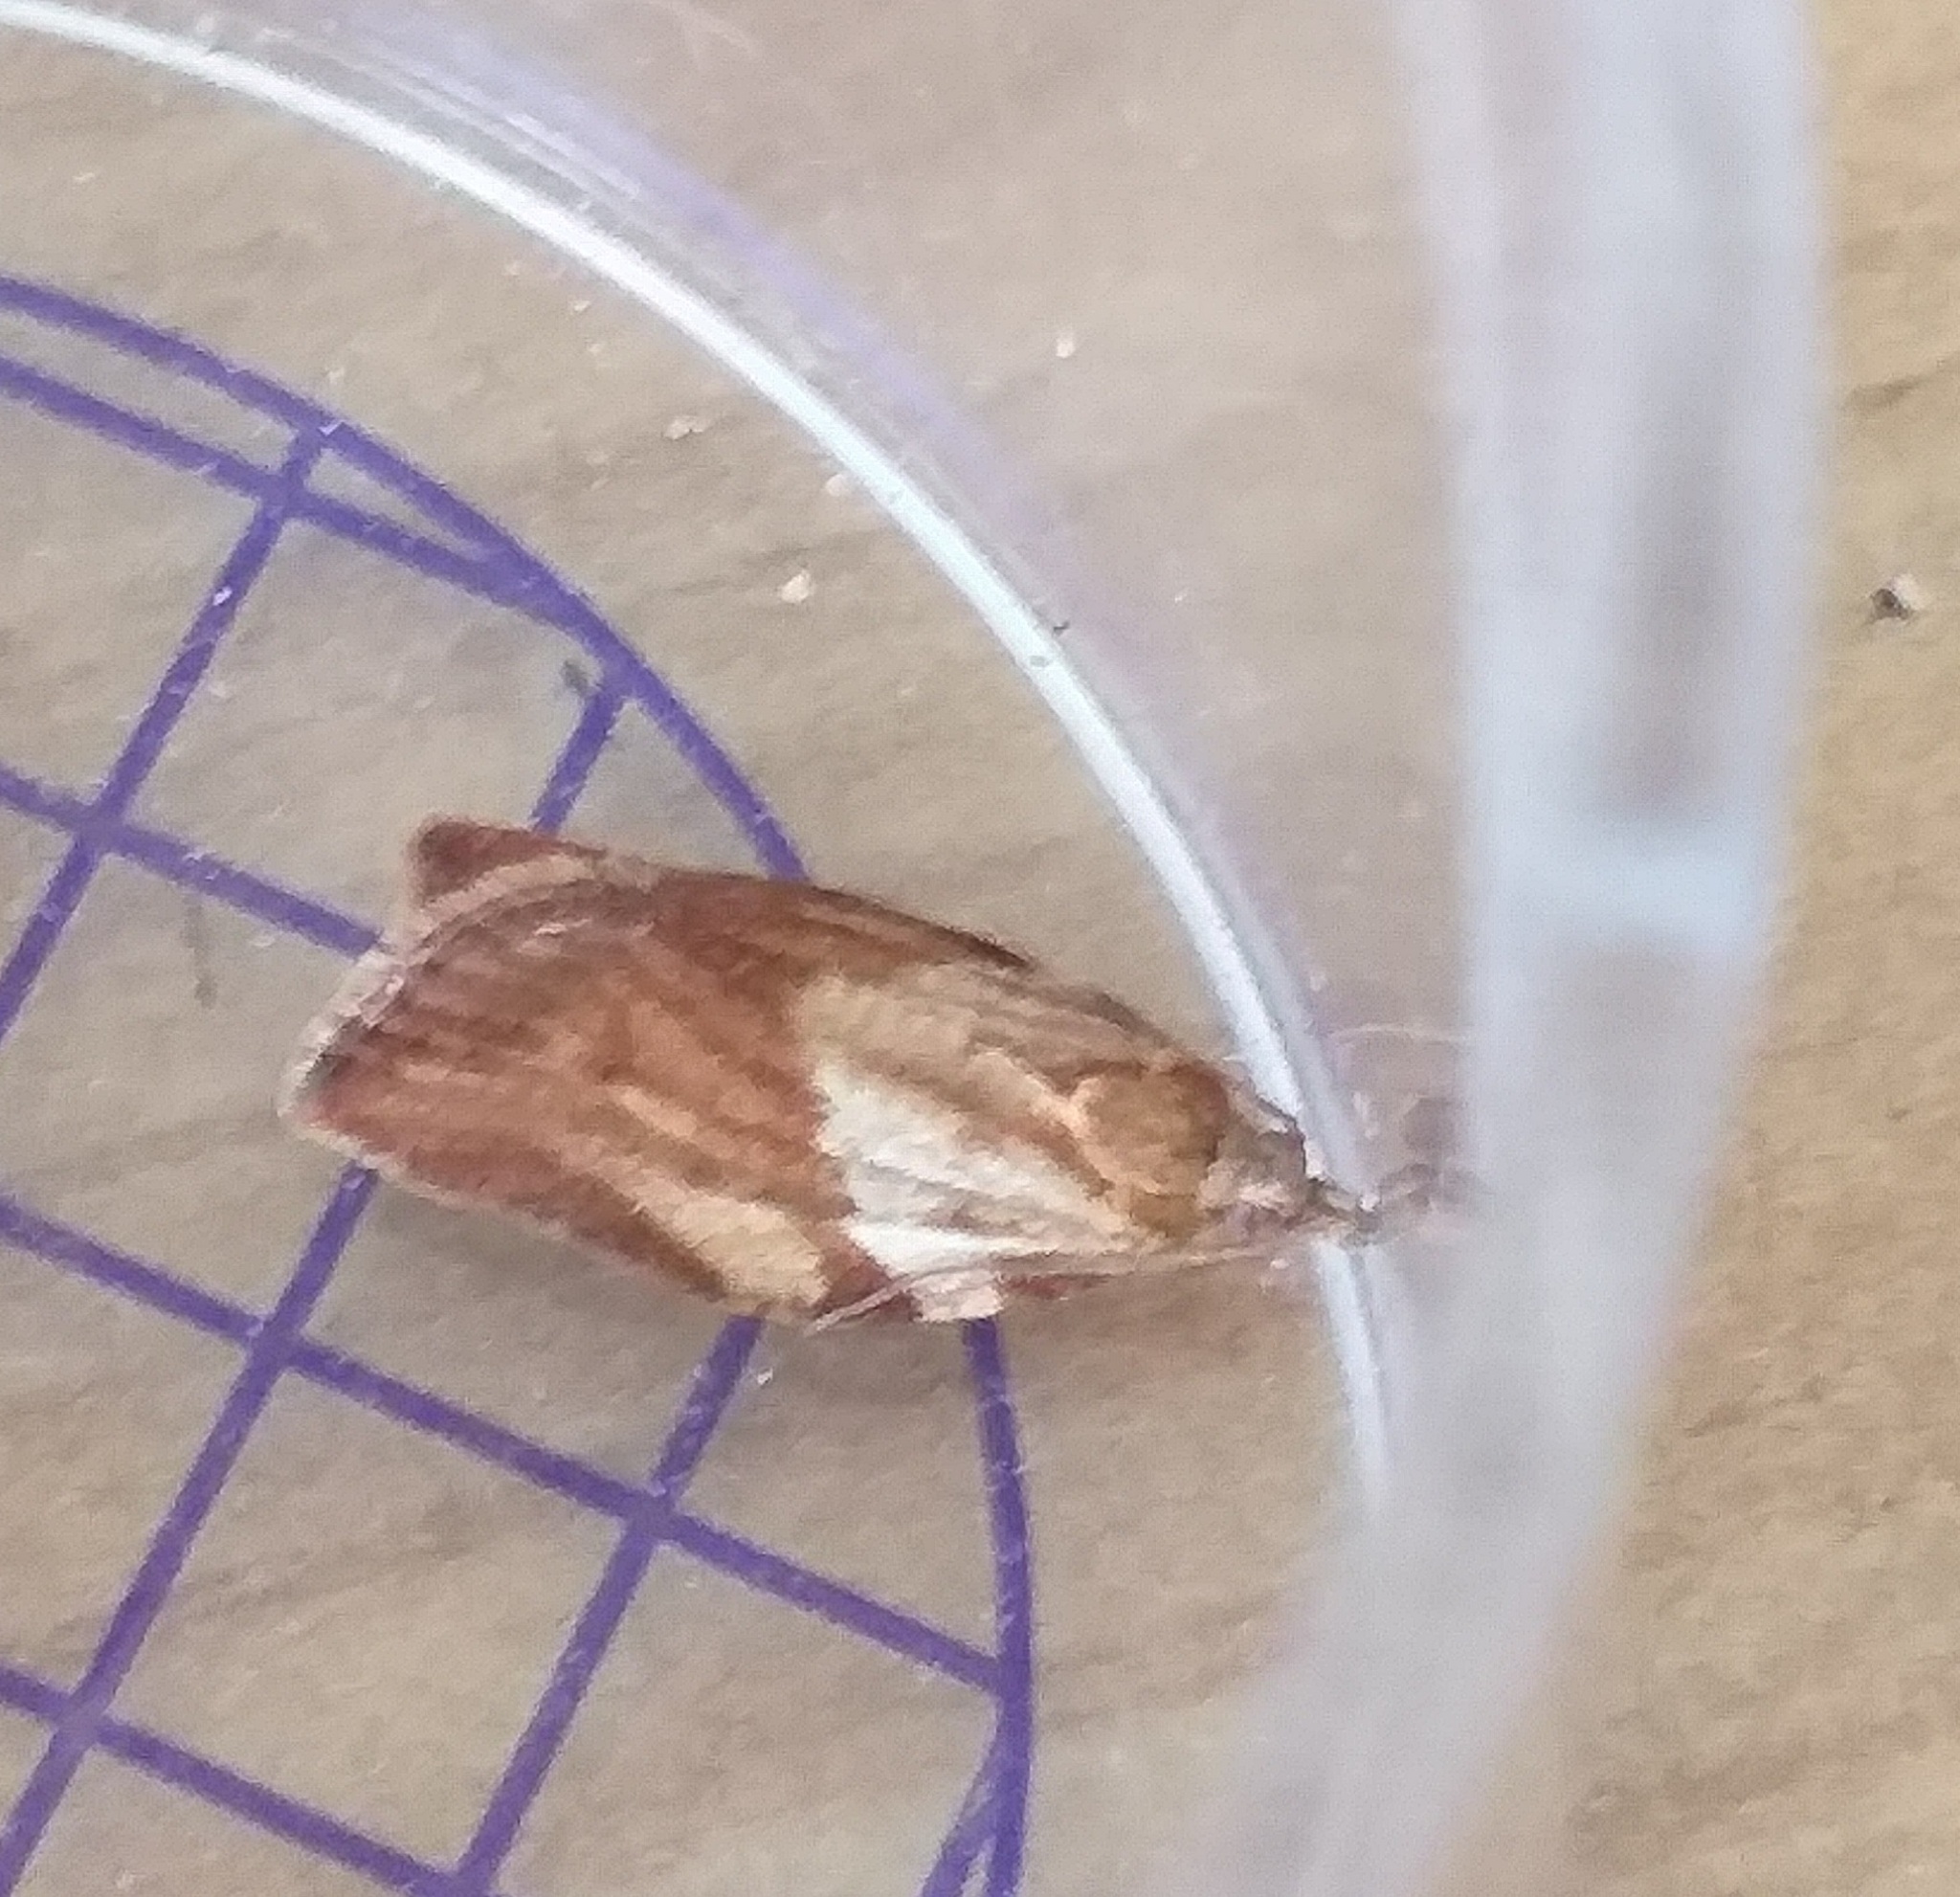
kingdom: Animalia
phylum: Arthropoda
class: Insecta
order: Lepidoptera
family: Tortricidae
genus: Epiphyas
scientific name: Epiphyas postvittana
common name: Light brown apple moth
